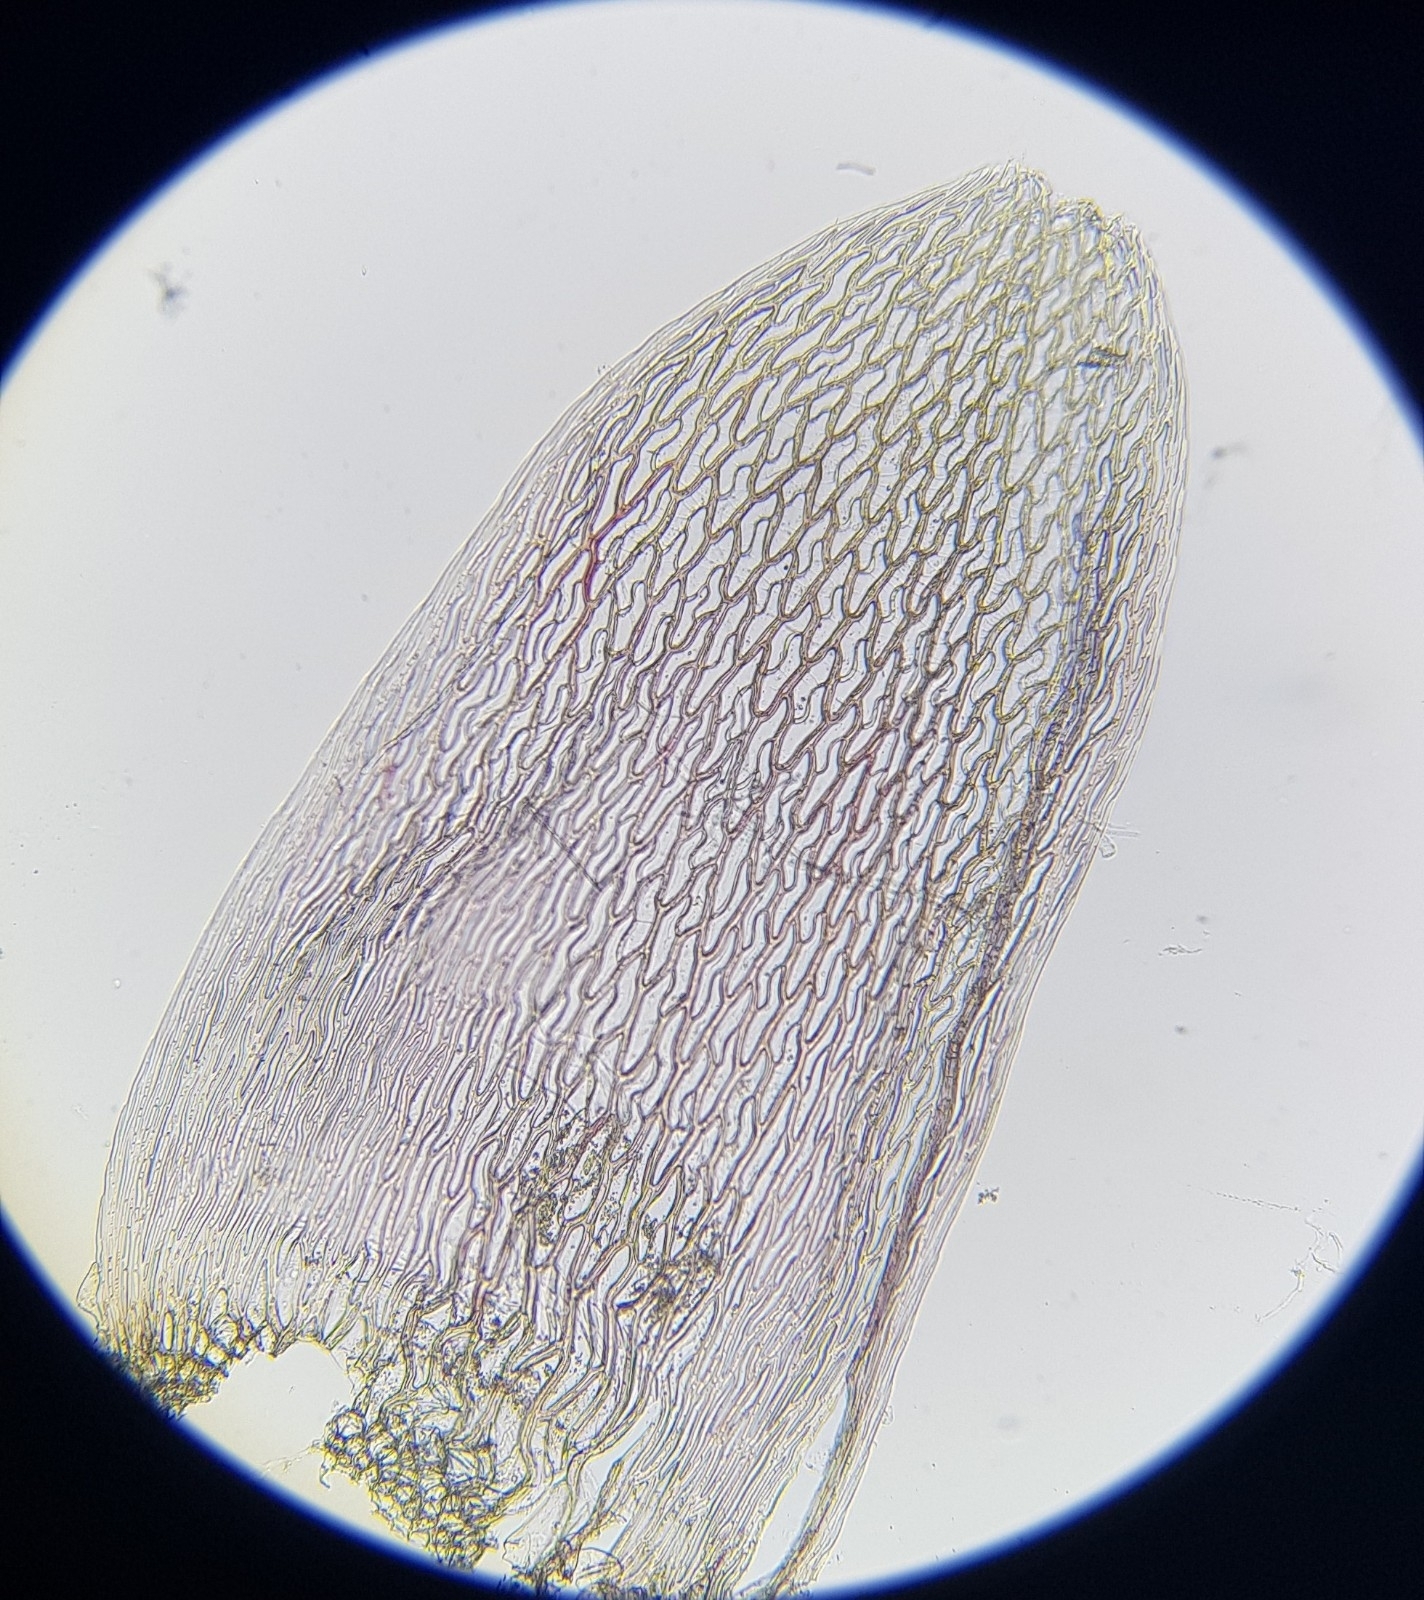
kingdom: Plantae
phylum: Bryophyta
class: Sphagnopsida
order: Sphagnales
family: Sphagnaceae
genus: Sphagnum
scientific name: Sphagnum capillifolium
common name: Small red peat moss
